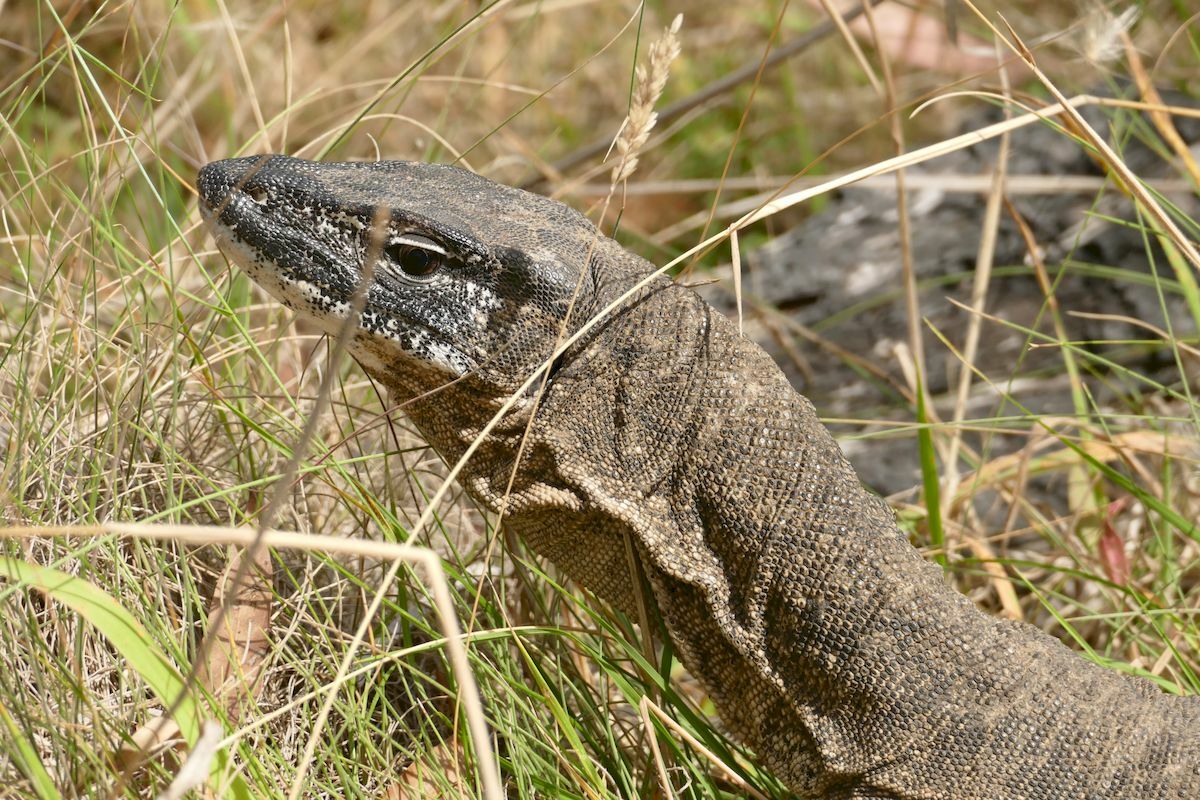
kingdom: Animalia
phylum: Chordata
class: Squamata
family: Varanidae
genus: Varanus
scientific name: Varanus rosenbergi
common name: Heath monitor
